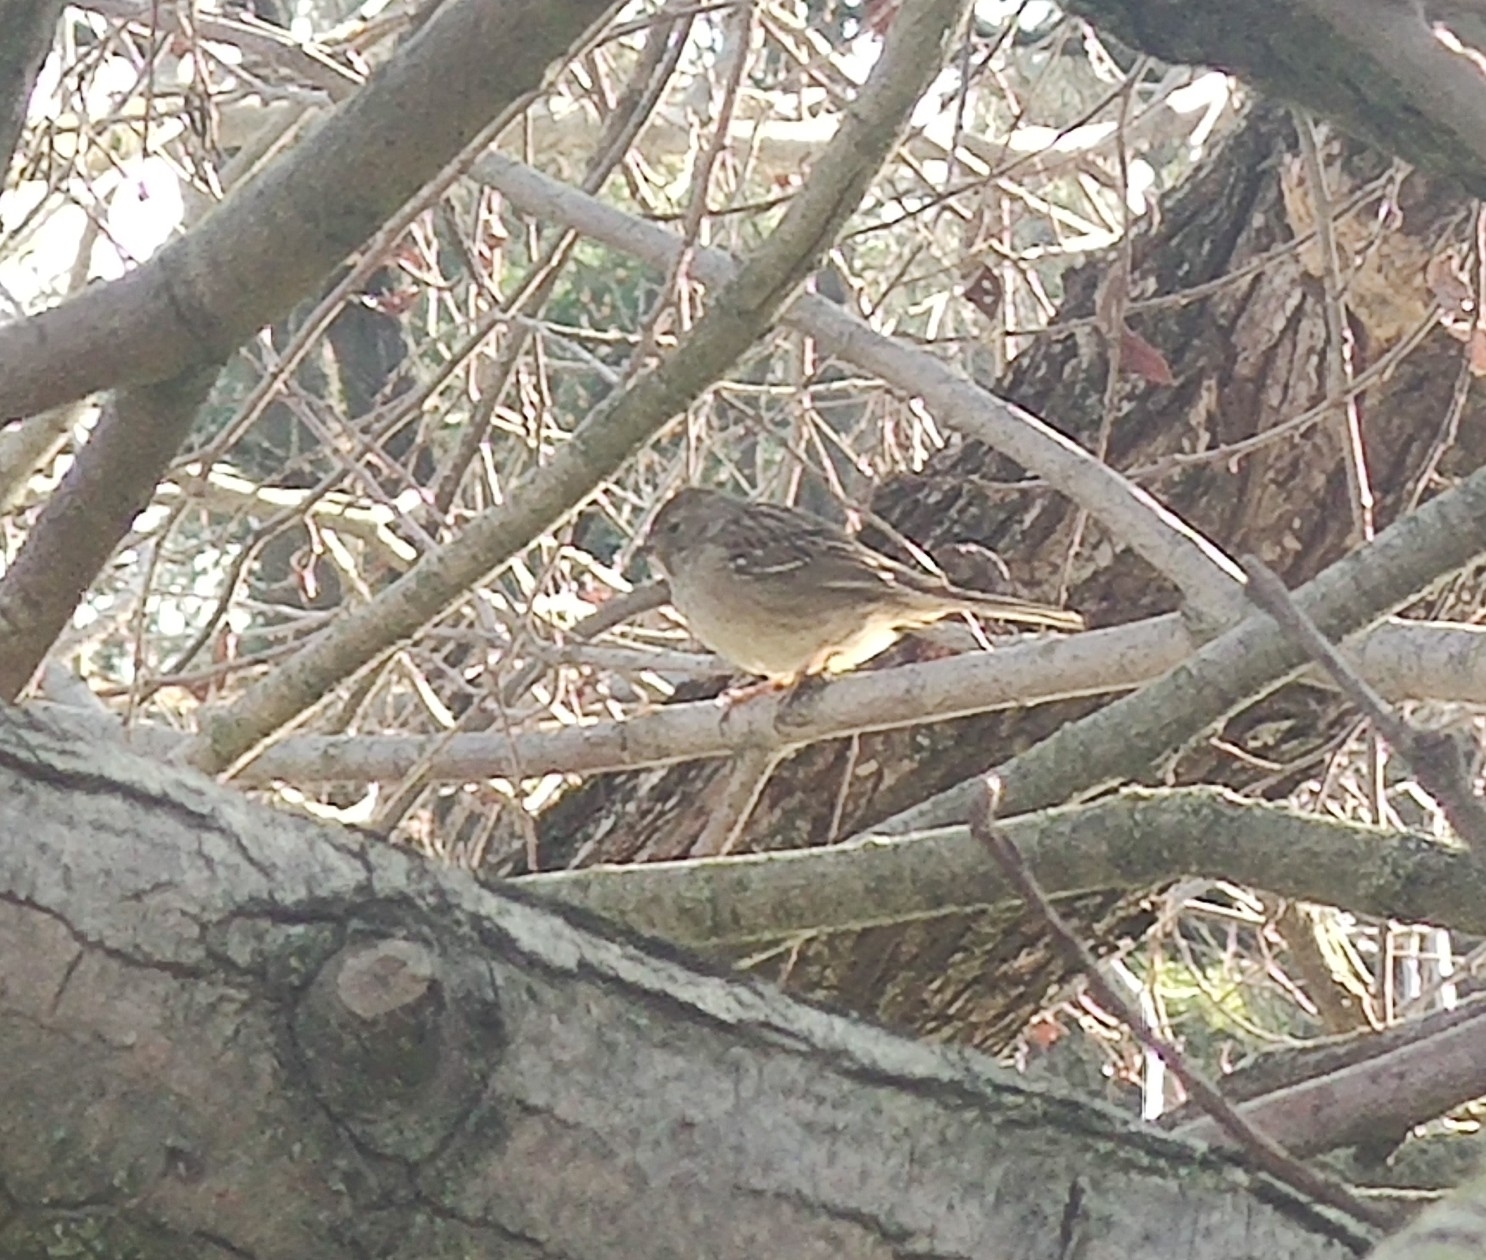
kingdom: Animalia
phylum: Chordata
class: Aves
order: Passeriformes
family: Passerellidae
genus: Zonotrichia
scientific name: Zonotrichia atricapilla
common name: Golden-crowned sparrow
